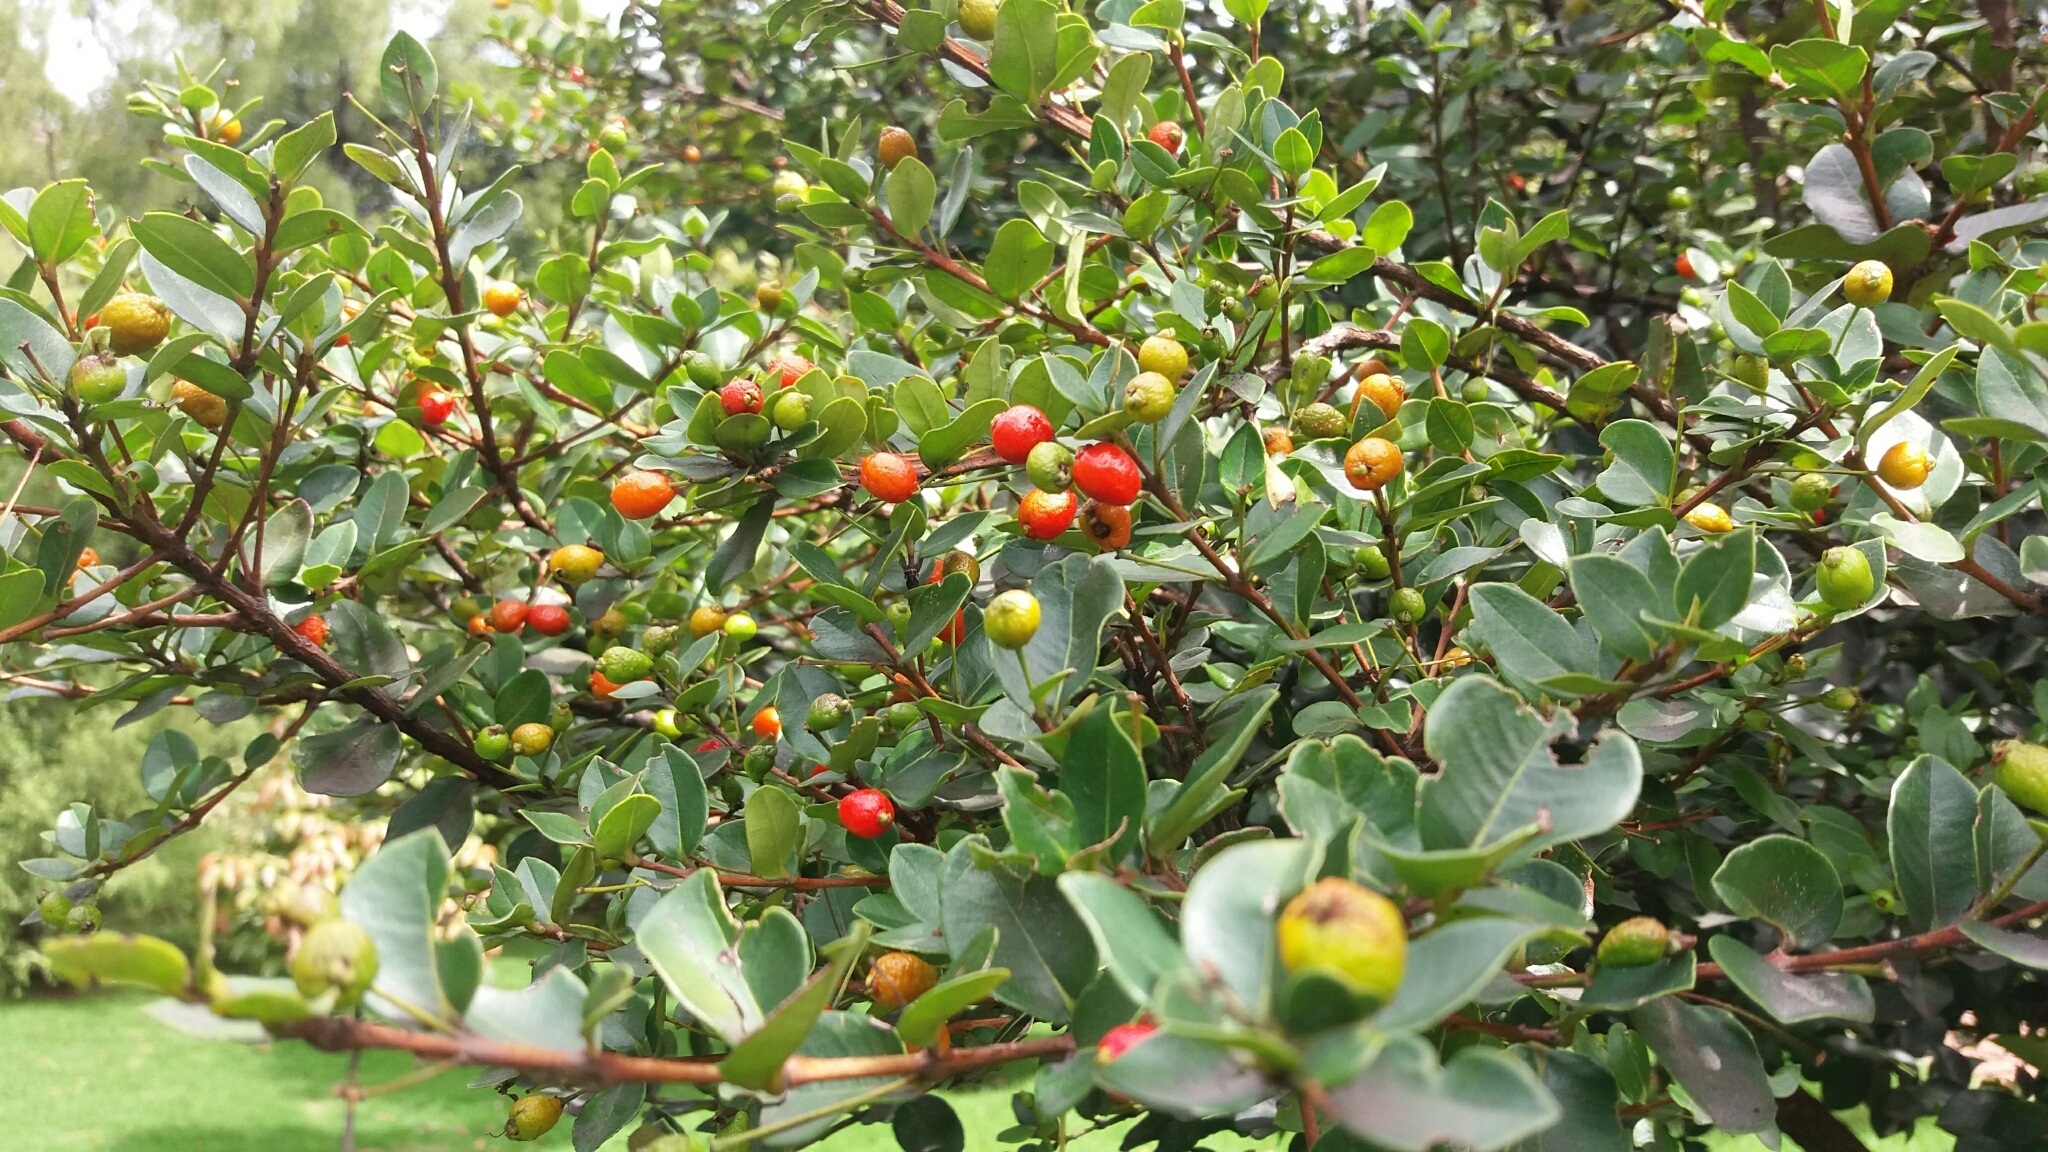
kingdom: Plantae
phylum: Tracheophyta
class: Magnoliopsida
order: Myrtales
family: Myrtaceae
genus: Myrcianthes
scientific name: Myrcianthes leucoxyla
